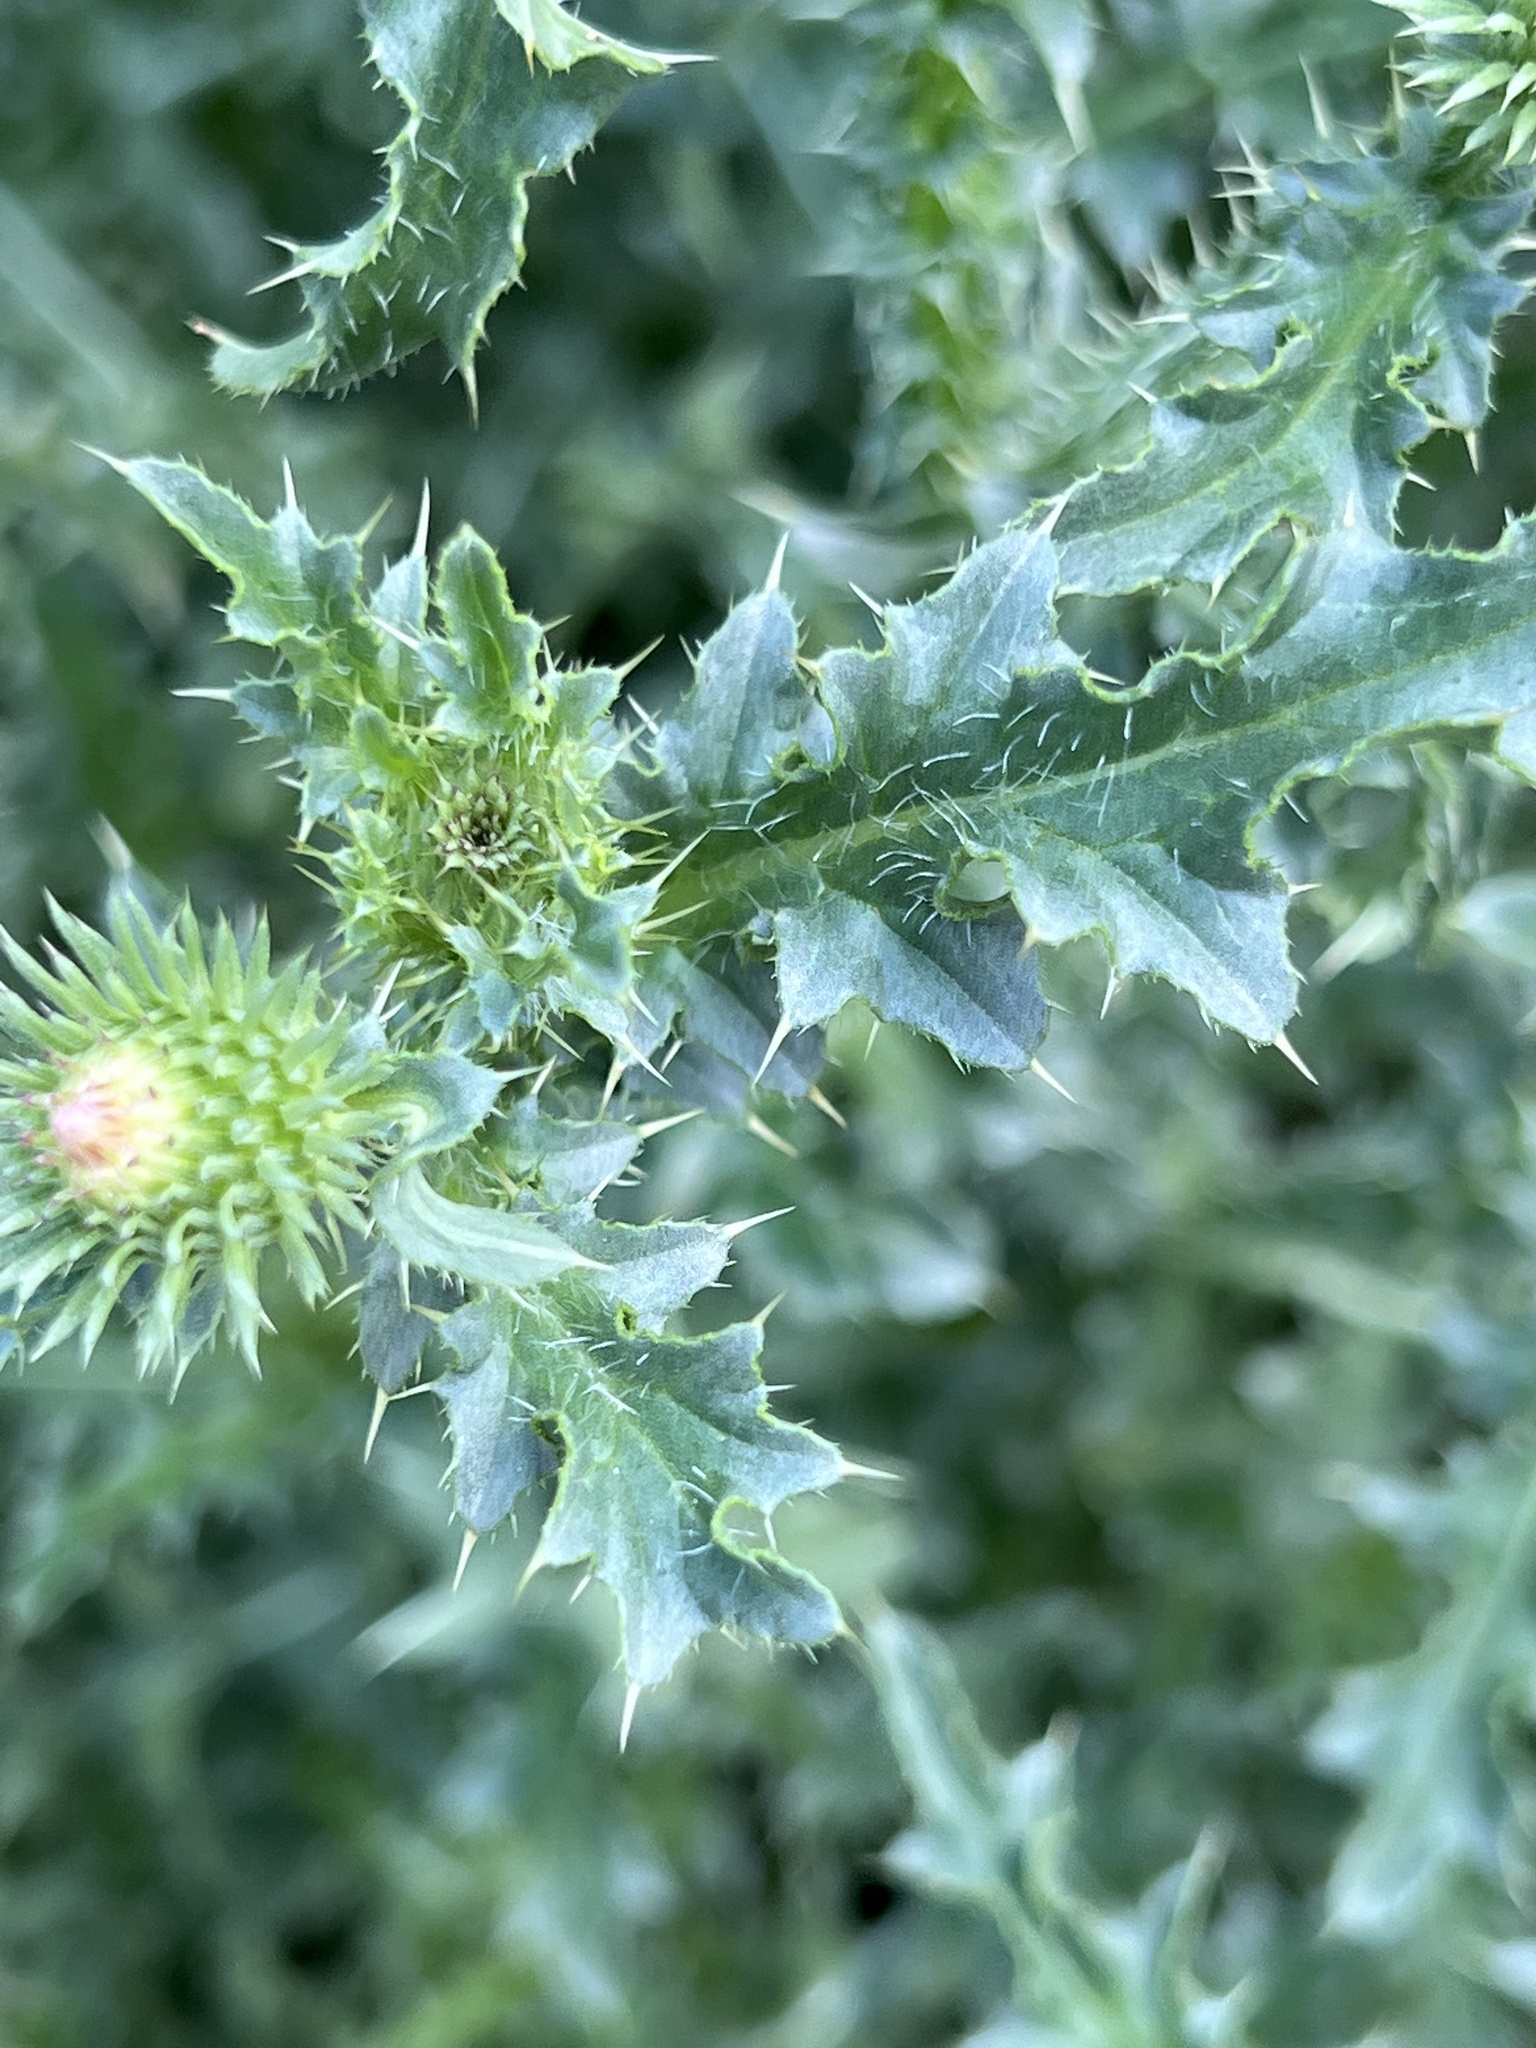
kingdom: Plantae
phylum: Tracheophyta
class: Magnoliopsida
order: Asterales
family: Asteraceae
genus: Carduus
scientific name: Carduus acanthoides
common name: Plumeless thistle
